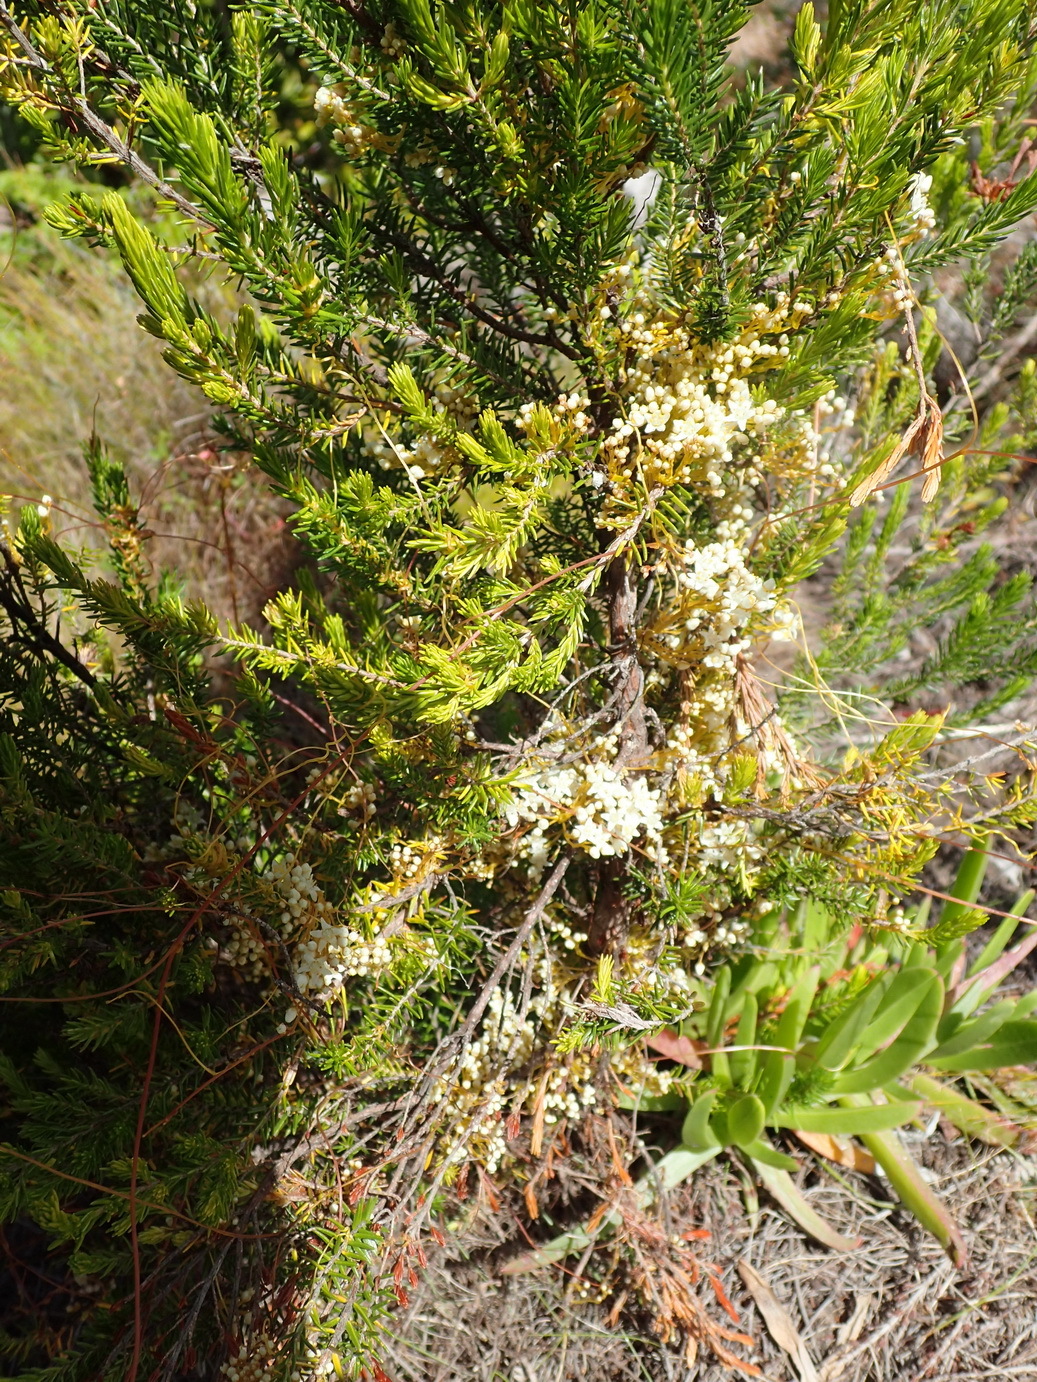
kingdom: Plantae
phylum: Tracheophyta
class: Magnoliopsida
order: Solanales
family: Convolvulaceae
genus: Cuscuta
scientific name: Cuscuta africana
